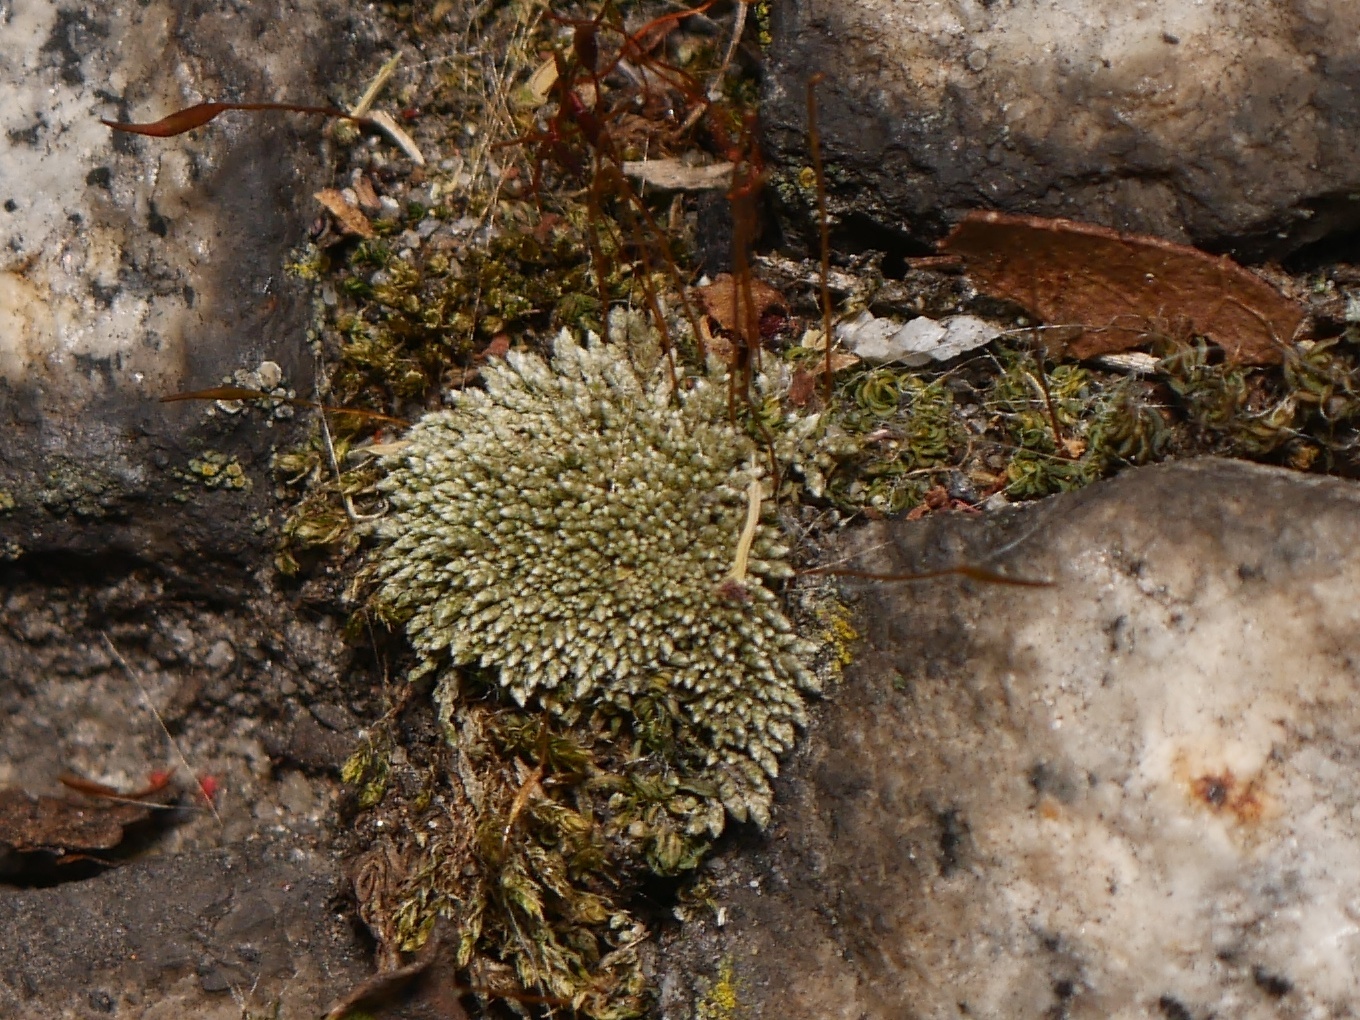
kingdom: Plantae
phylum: Bryophyta
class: Bryopsida
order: Bryales
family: Bryaceae
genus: Bryum
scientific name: Bryum argenteum
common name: Silver-moss
